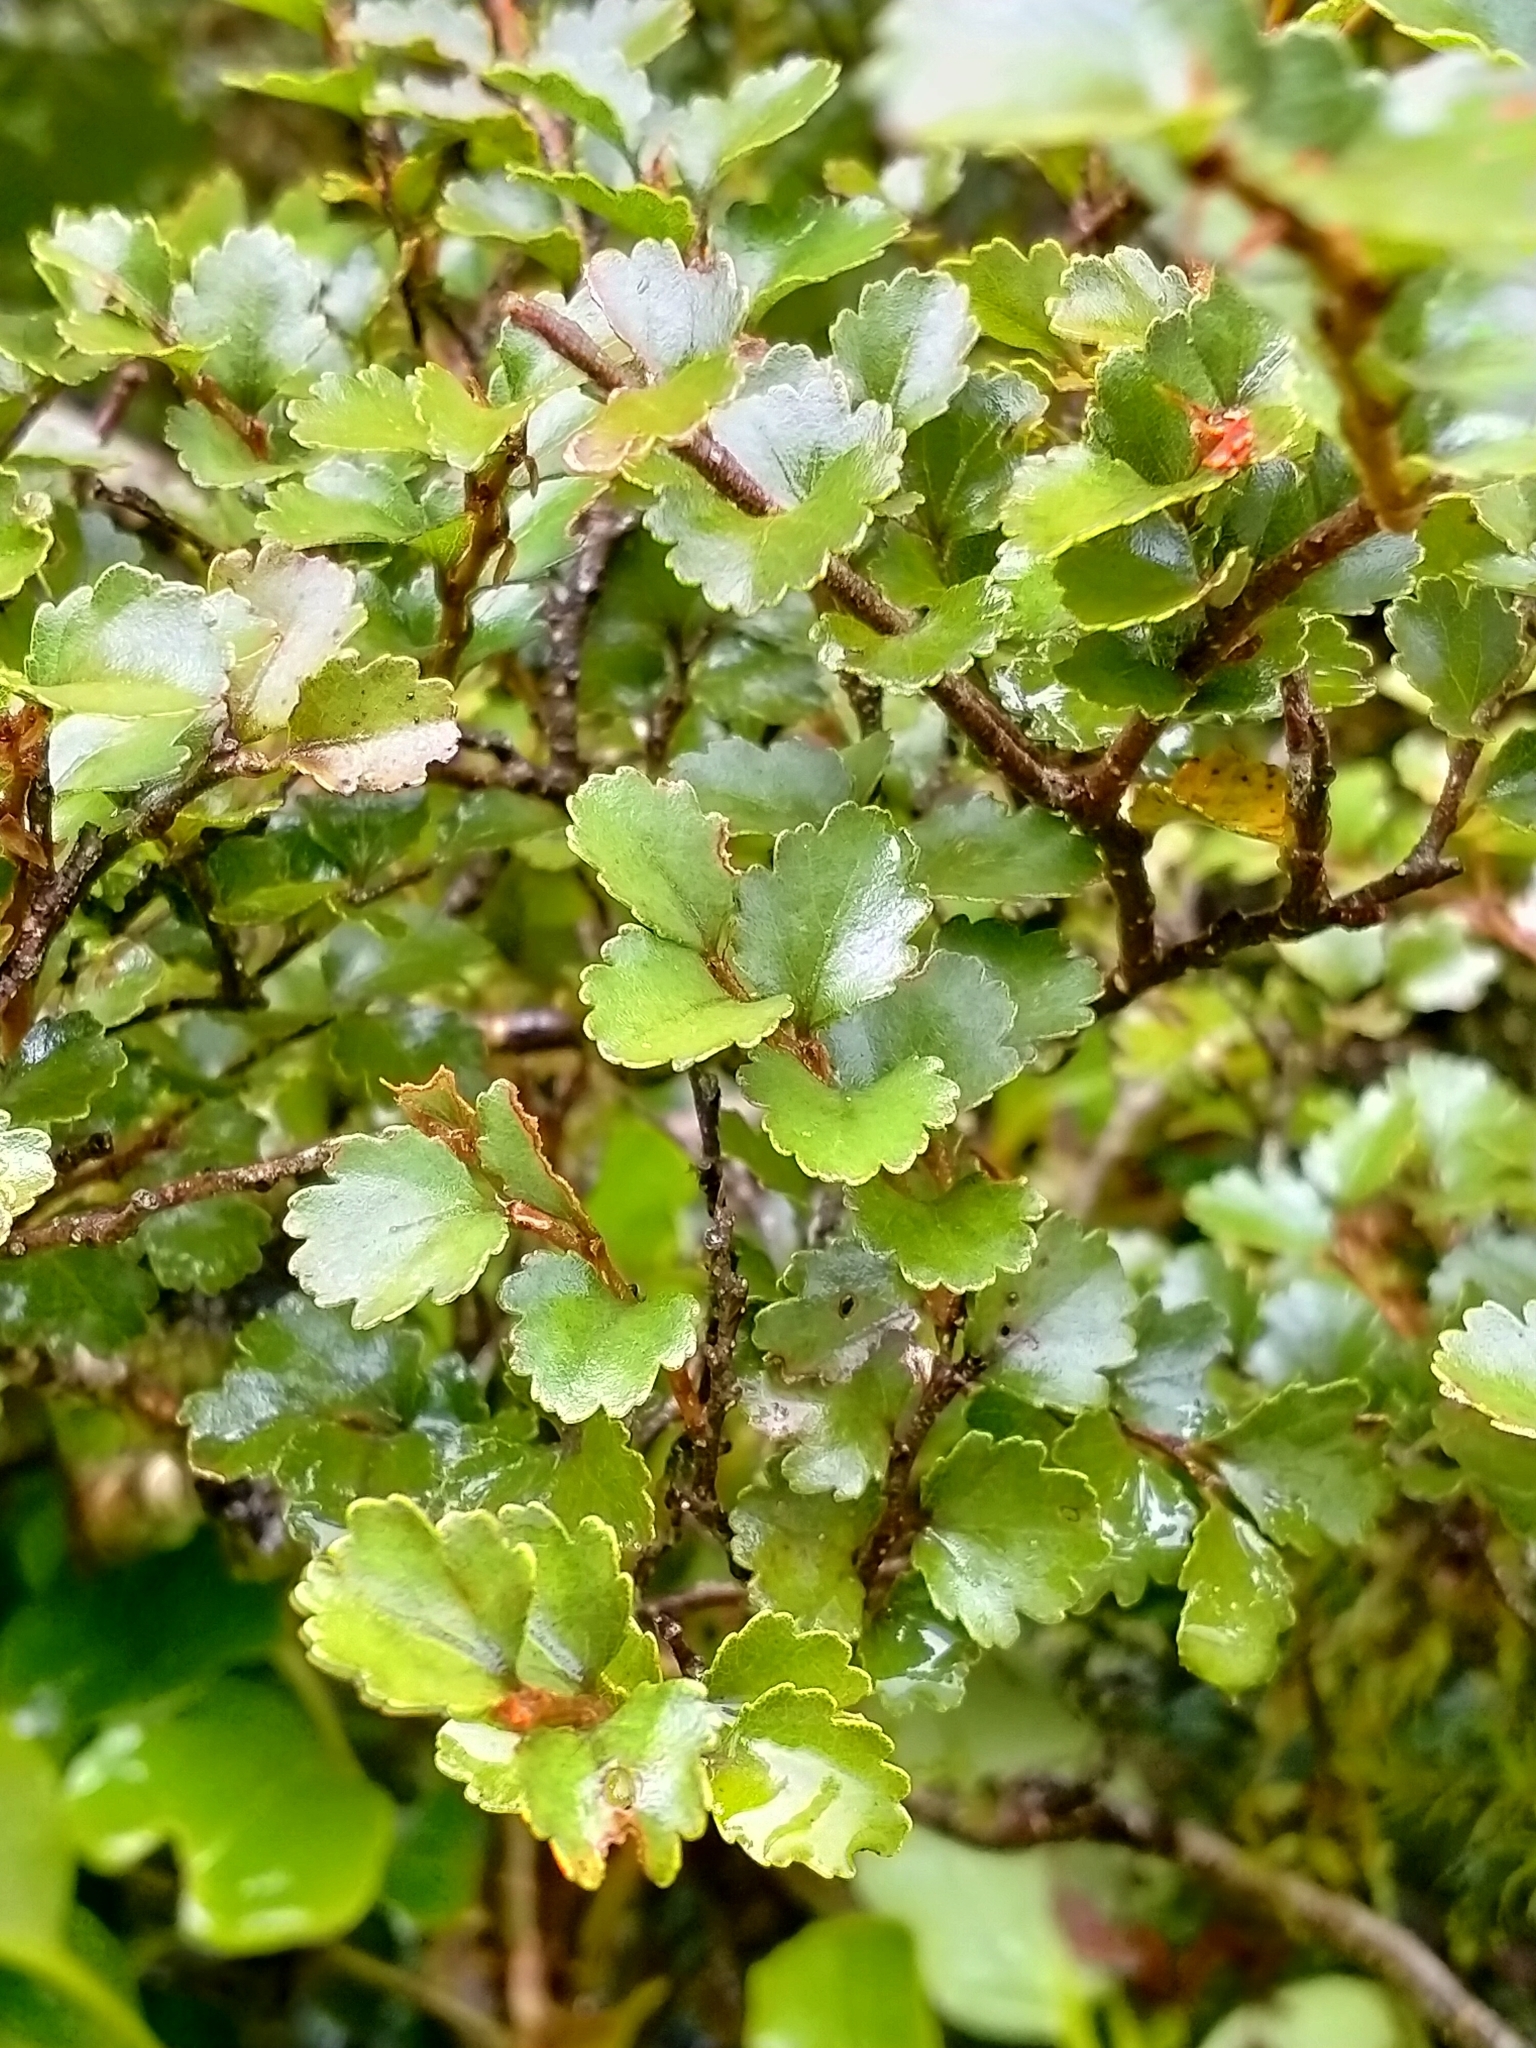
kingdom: Plantae
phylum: Tracheophyta
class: Magnoliopsida
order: Fagales
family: Nothofagaceae
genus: Nothofagus
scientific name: Nothofagus menziesii
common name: Silver beech
